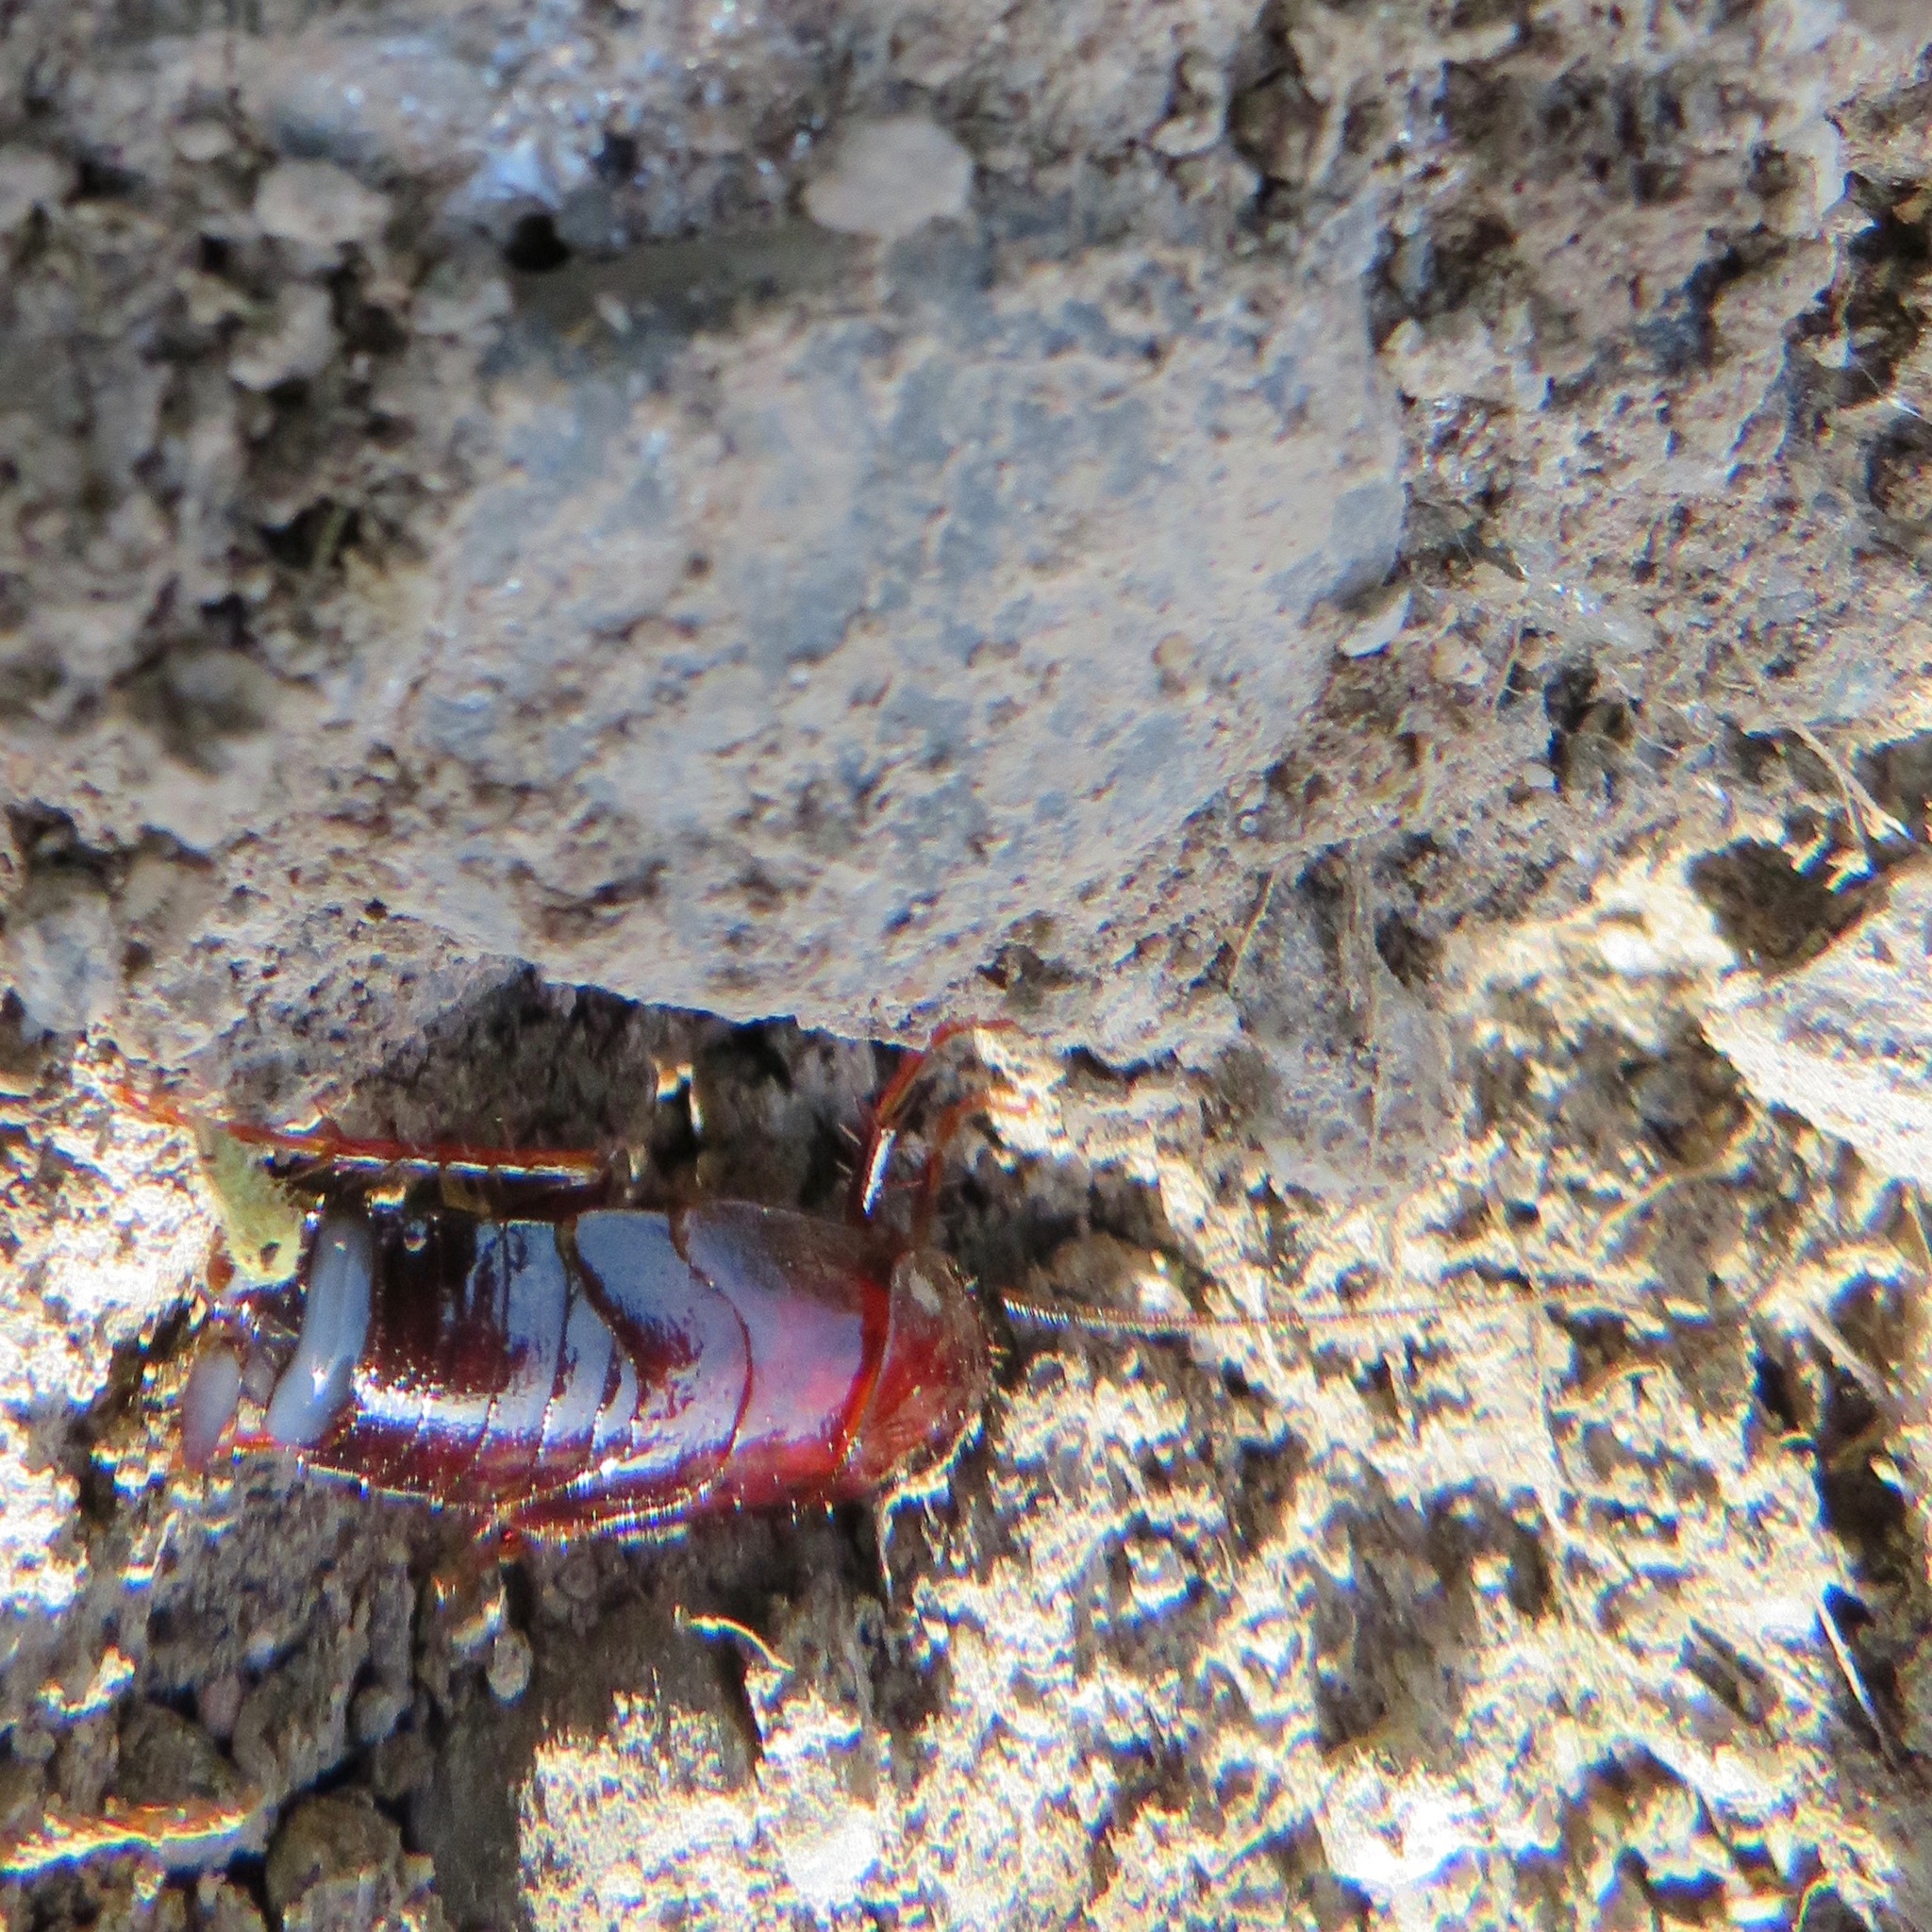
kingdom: Animalia
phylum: Arthropoda
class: Insecta
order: Blattodea
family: Ectobiidae
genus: Parcoblatta
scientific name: Parcoblatta americana
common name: Western wood cockroach
